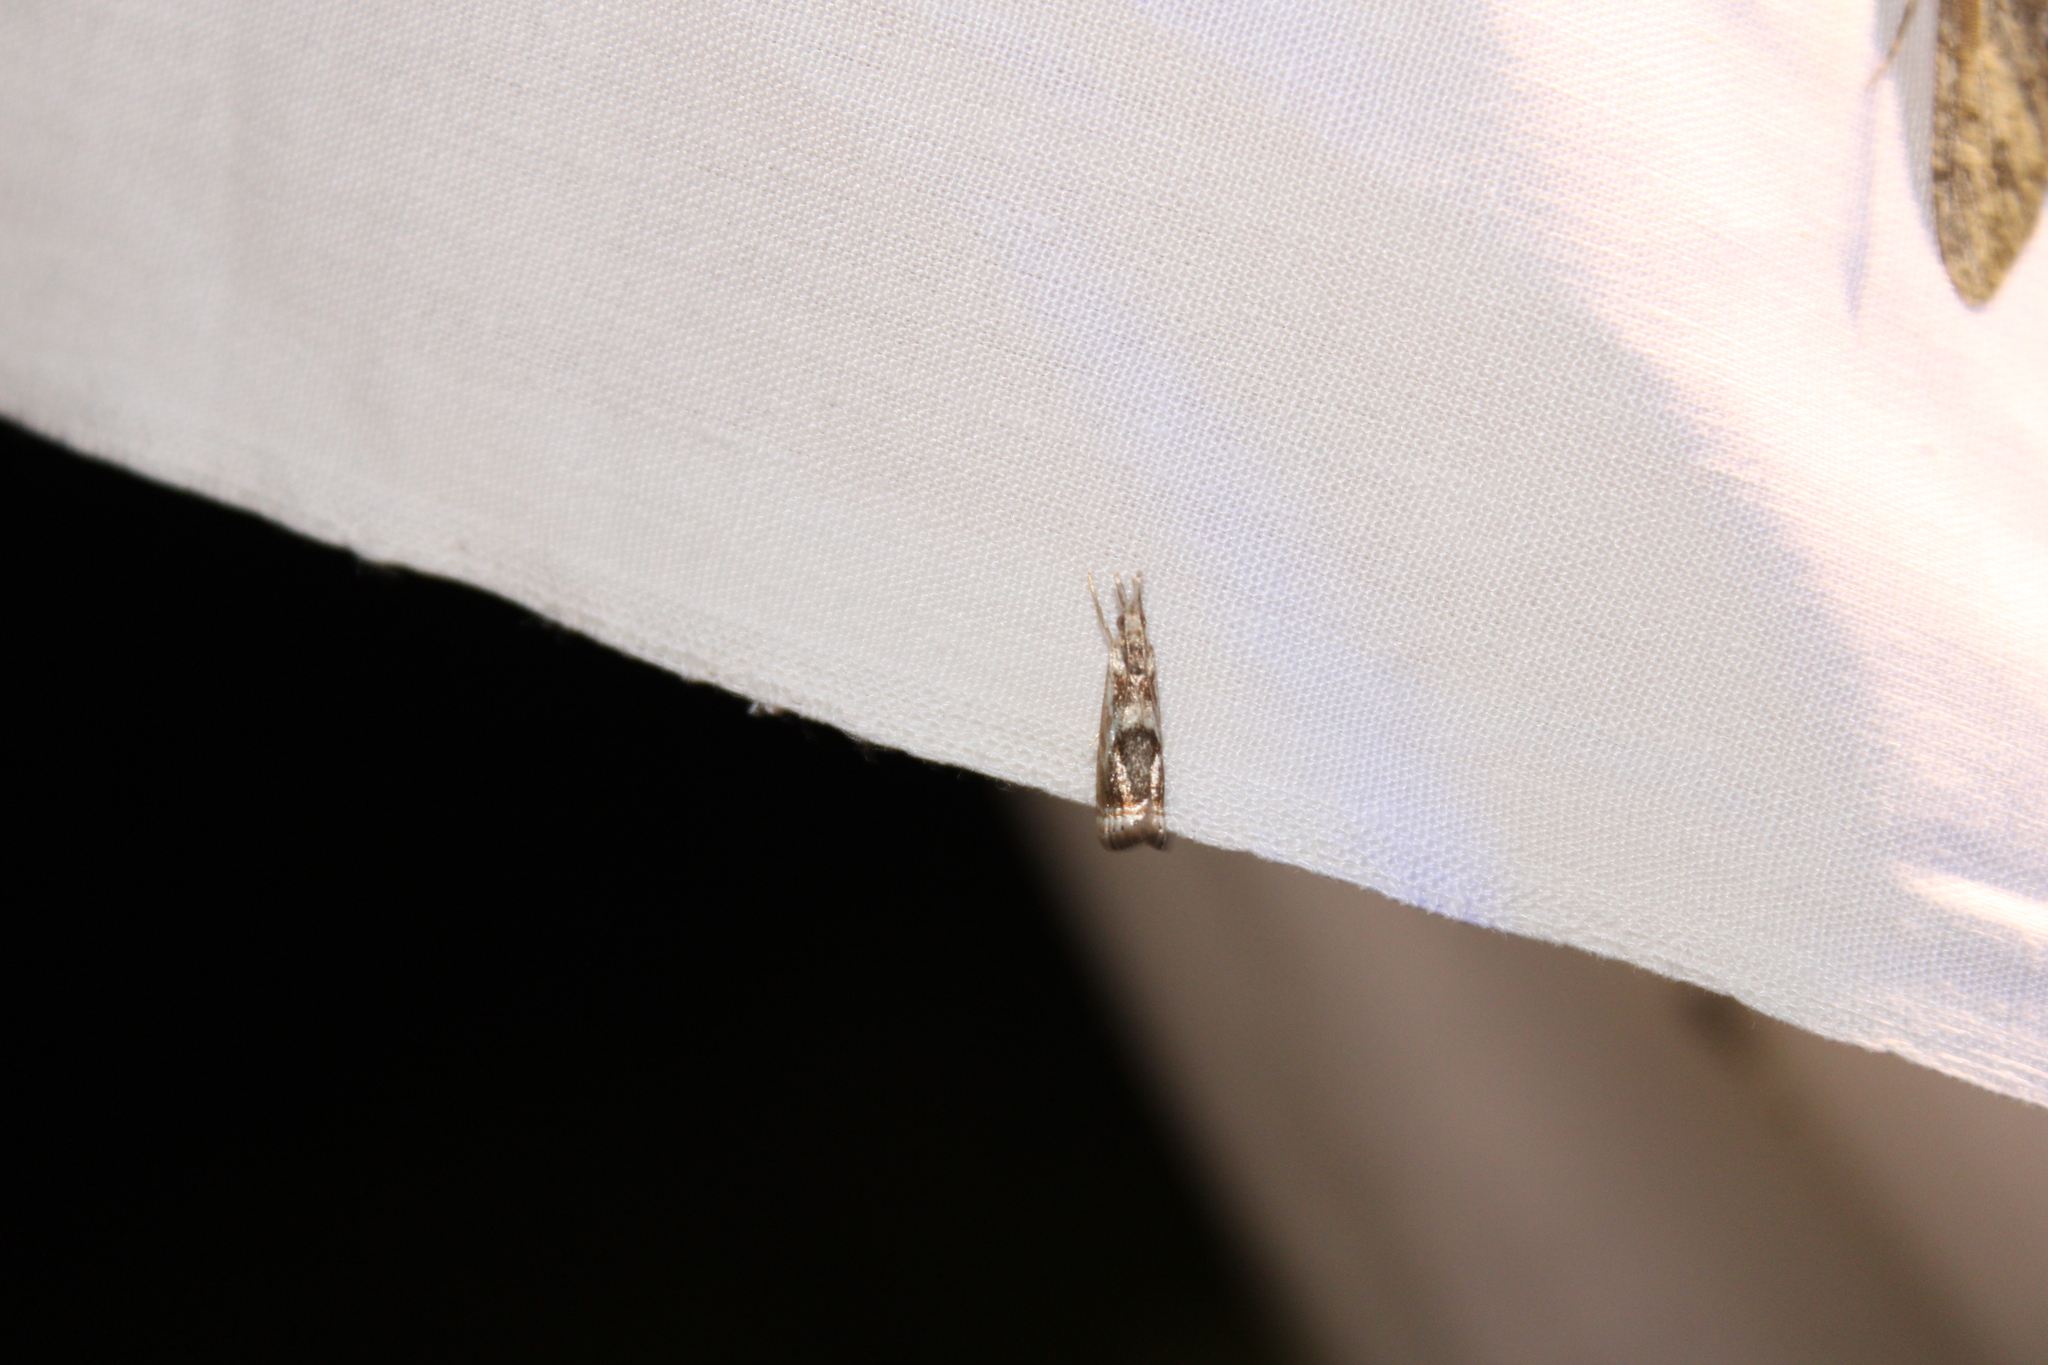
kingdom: Animalia
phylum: Arthropoda
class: Insecta
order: Lepidoptera
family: Crambidae
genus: Microcrambus
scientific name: Microcrambus elegans
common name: Elegant grass-veneer
